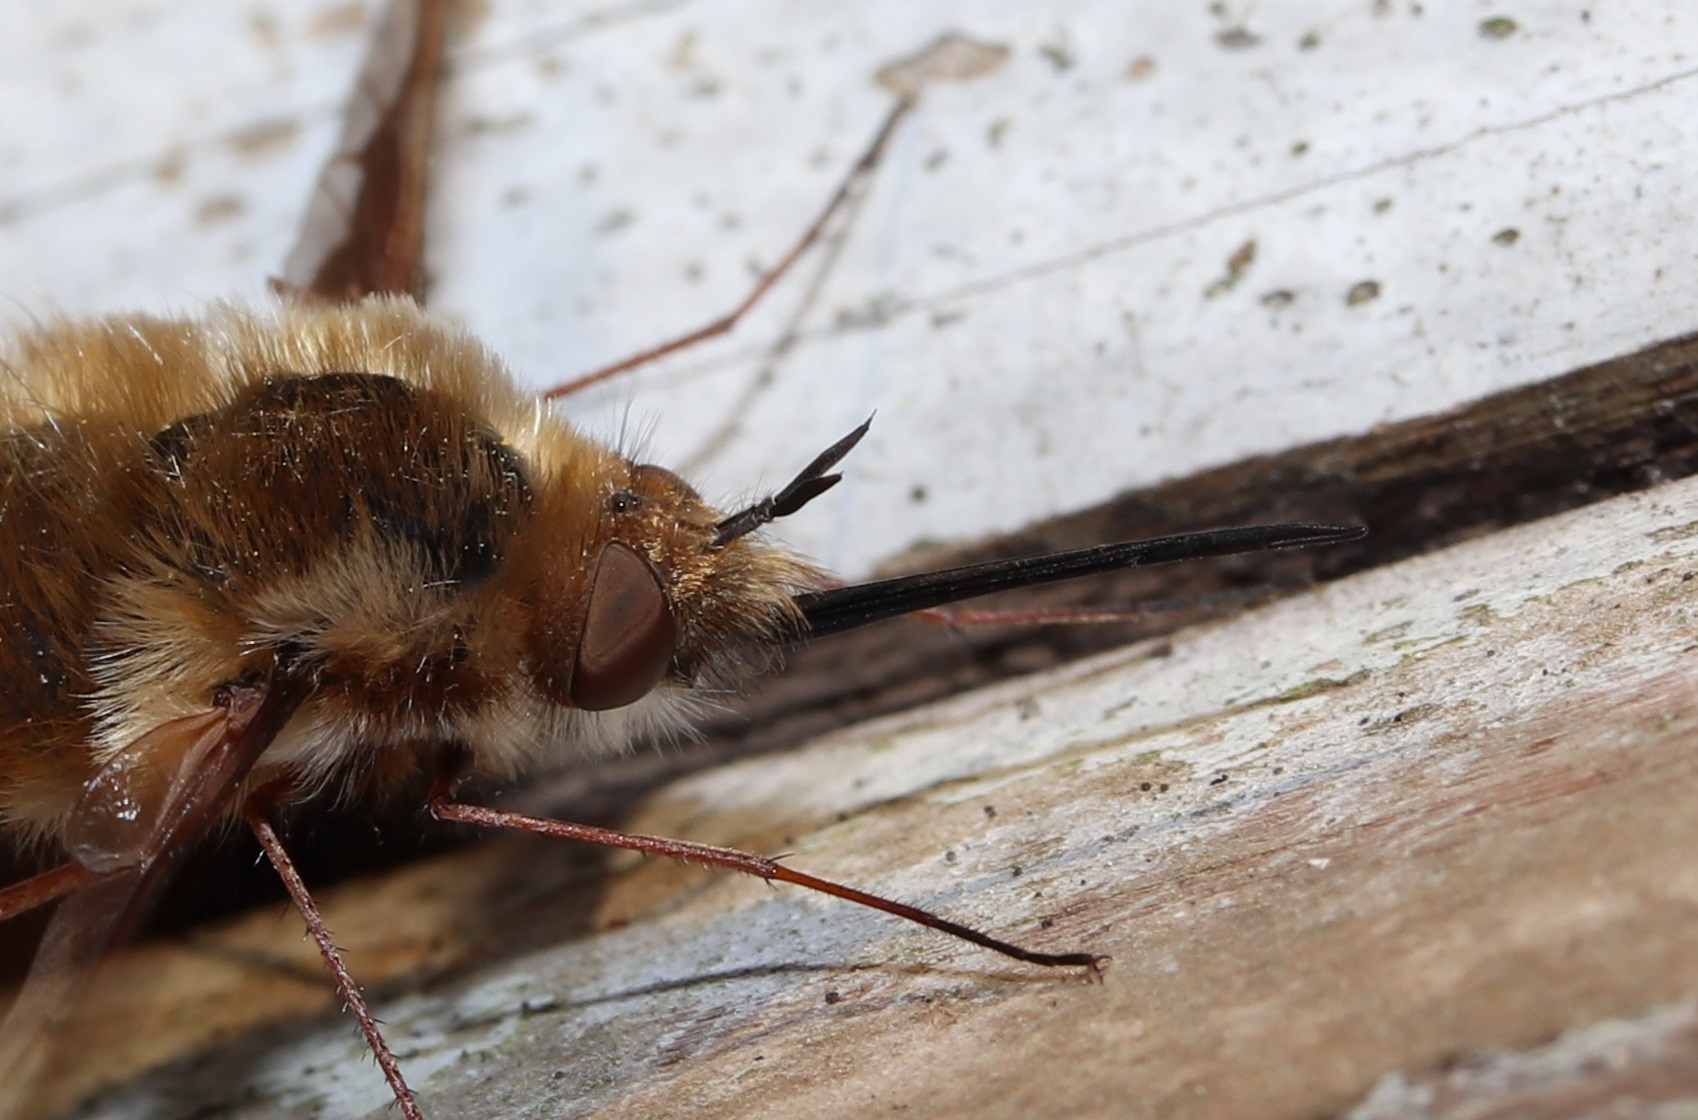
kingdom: Animalia
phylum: Arthropoda
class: Insecta
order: Diptera
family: Bombyliidae
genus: Bombylius
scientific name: Bombylius major
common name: Bee fly
